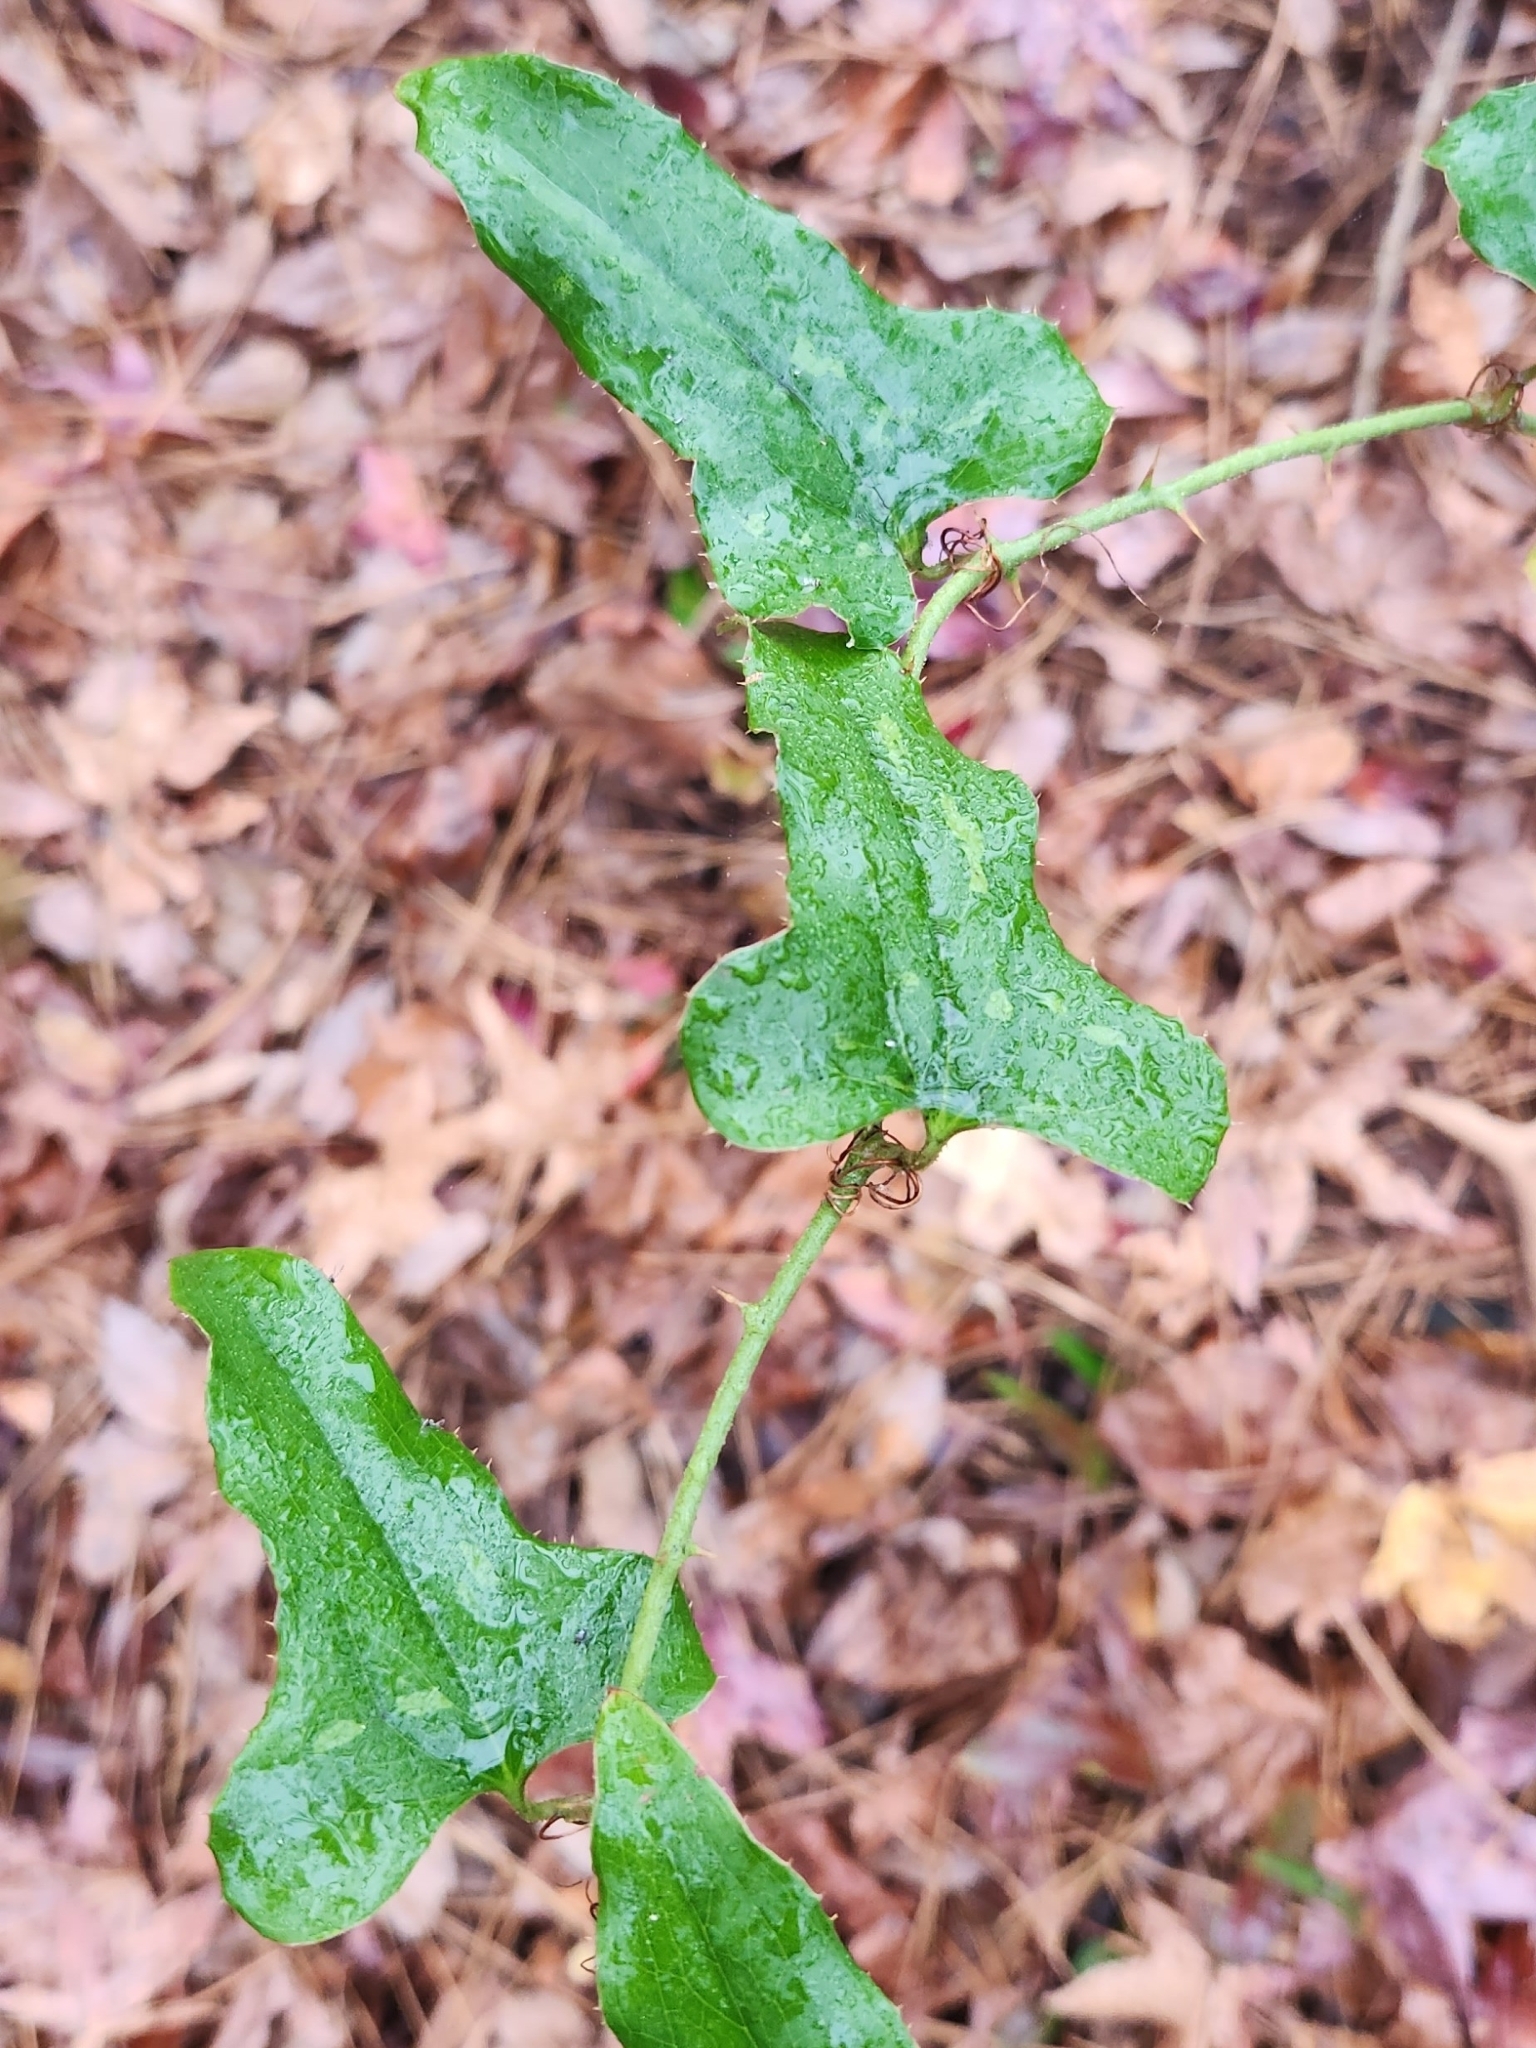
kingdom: Plantae
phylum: Tracheophyta
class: Liliopsida
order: Liliales
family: Smilacaceae
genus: Smilax
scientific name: Smilax bona-nox
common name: Catbrier
